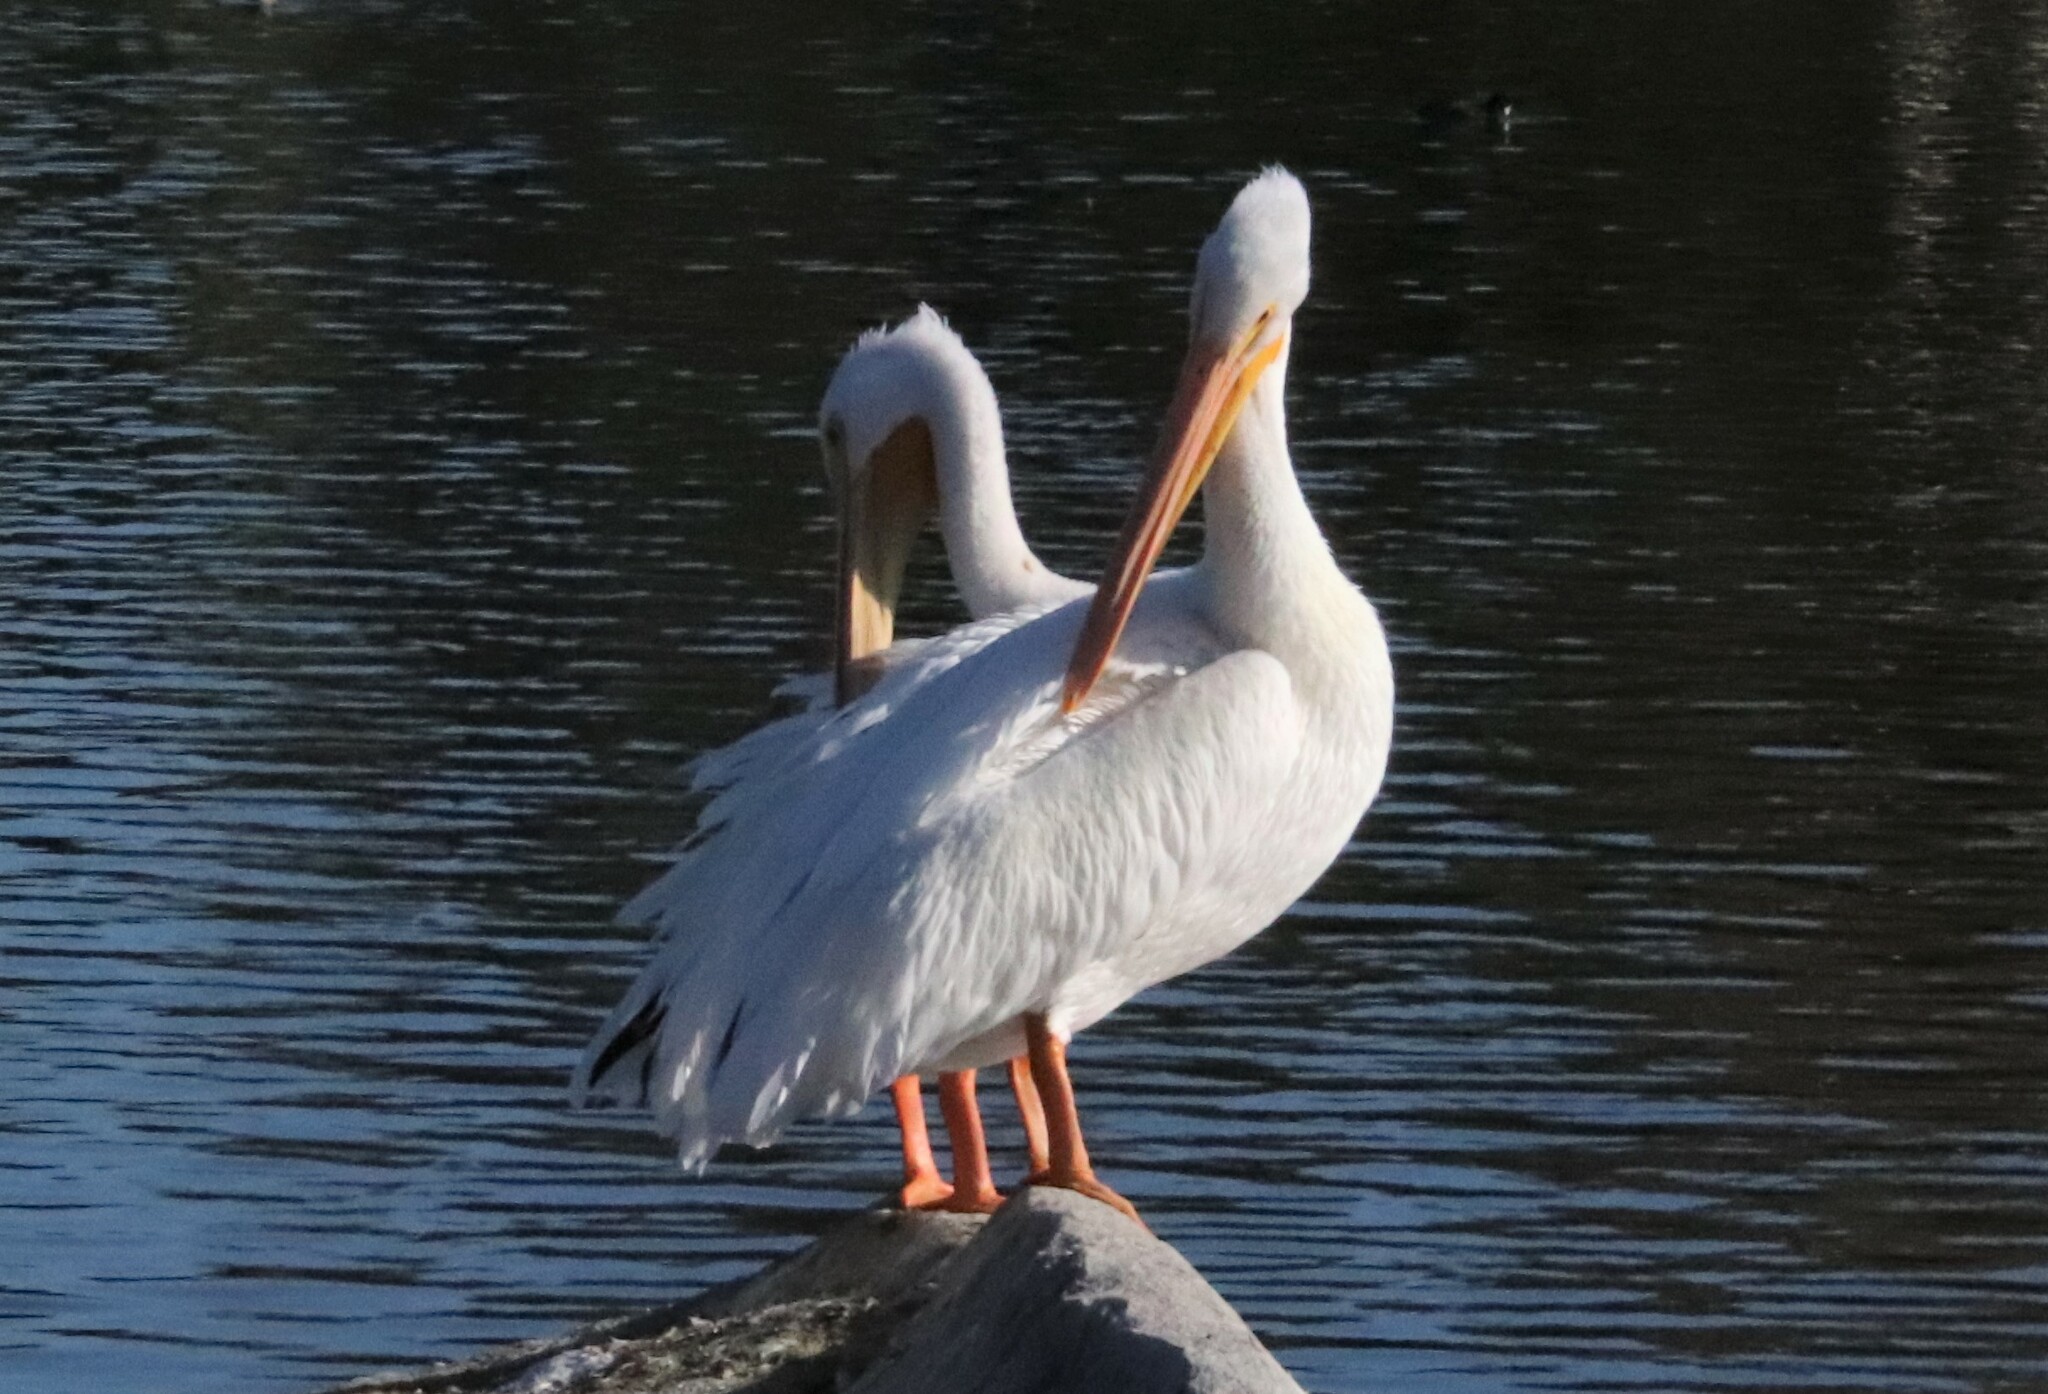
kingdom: Animalia
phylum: Chordata
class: Aves
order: Pelecaniformes
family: Pelecanidae
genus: Pelecanus
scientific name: Pelecanus erythrorhynchos
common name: American white pelican
